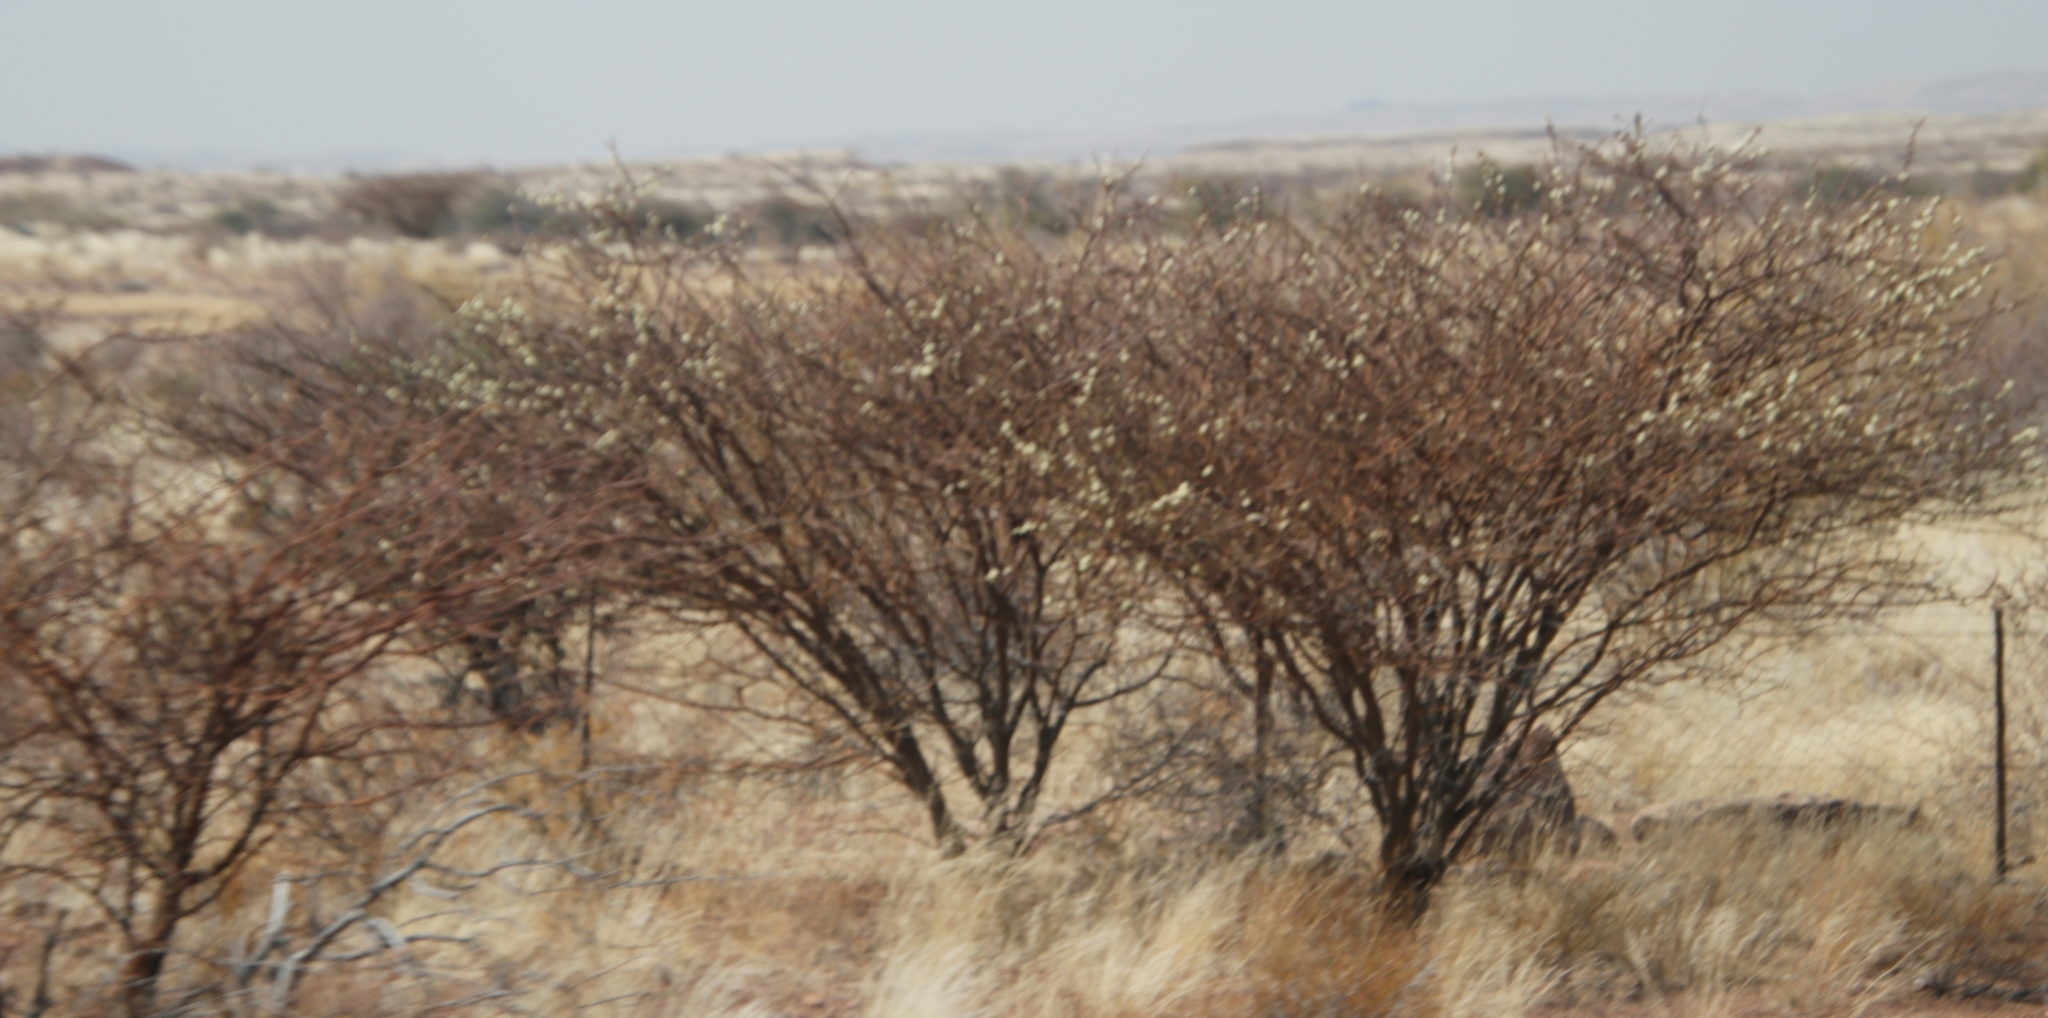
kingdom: Plantae
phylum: Tracheophyta
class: Magnoliopsida
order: Fabales
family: Fabaceae
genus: Senegalia
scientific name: Senegalia mellifera
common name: Hookthorn
